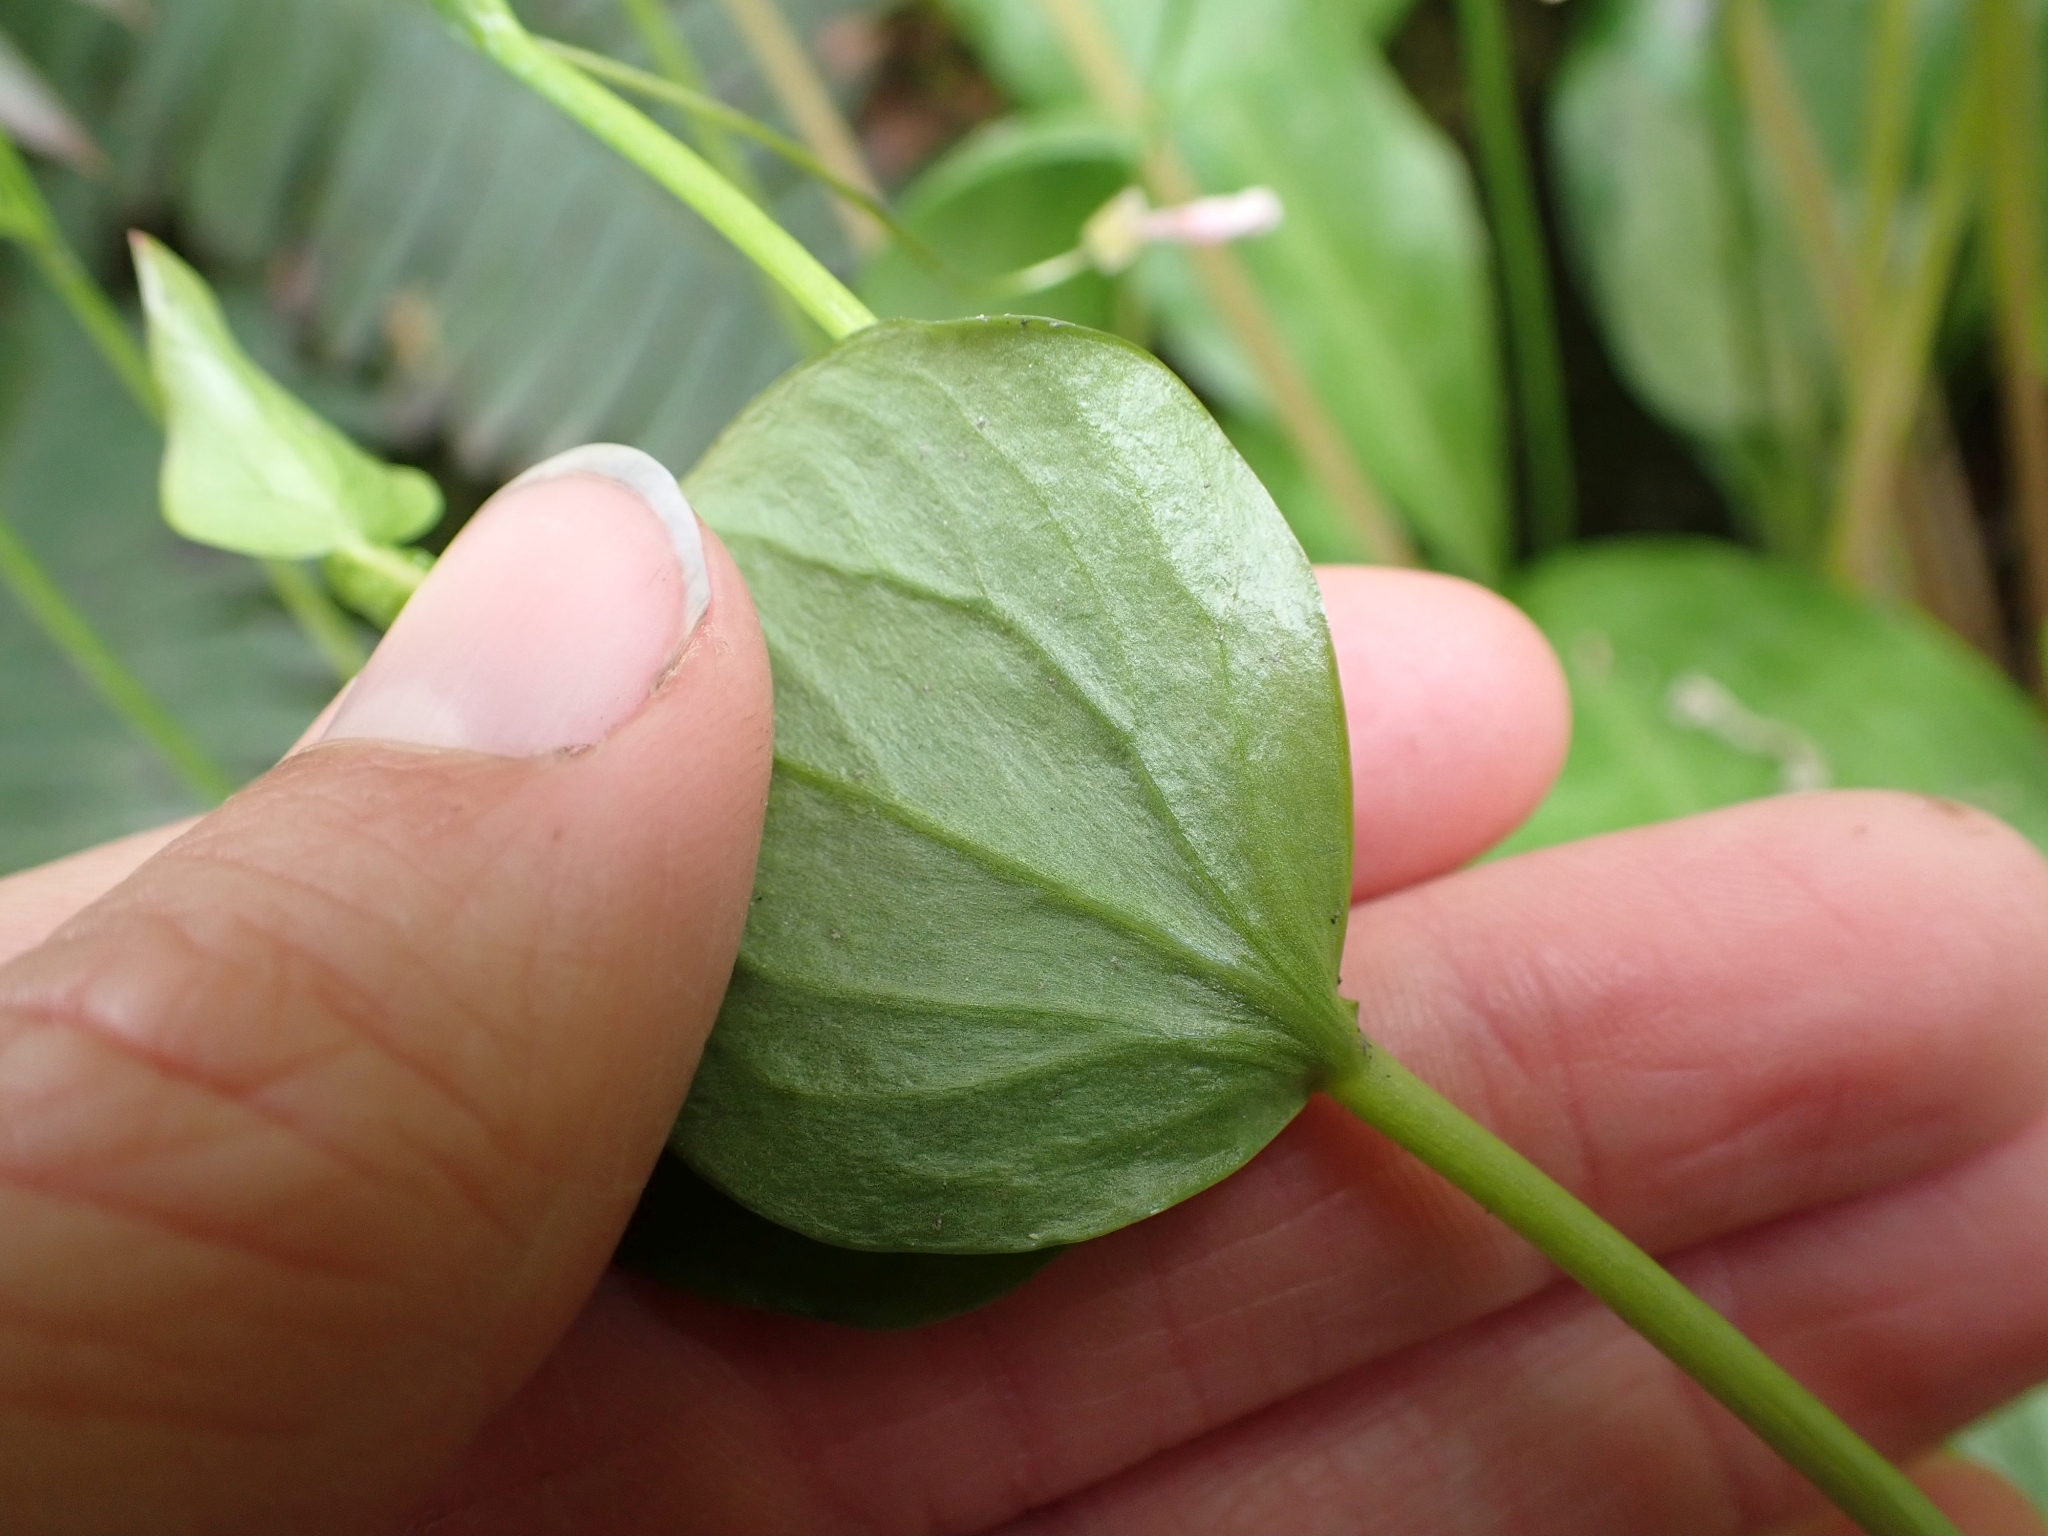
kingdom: Plantae
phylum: Tracheophyta
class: Magnoliopsida
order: Caryophyllales
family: Montiaceae
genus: Claytonia
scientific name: Claytonia sibirica
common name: Pink purslane
